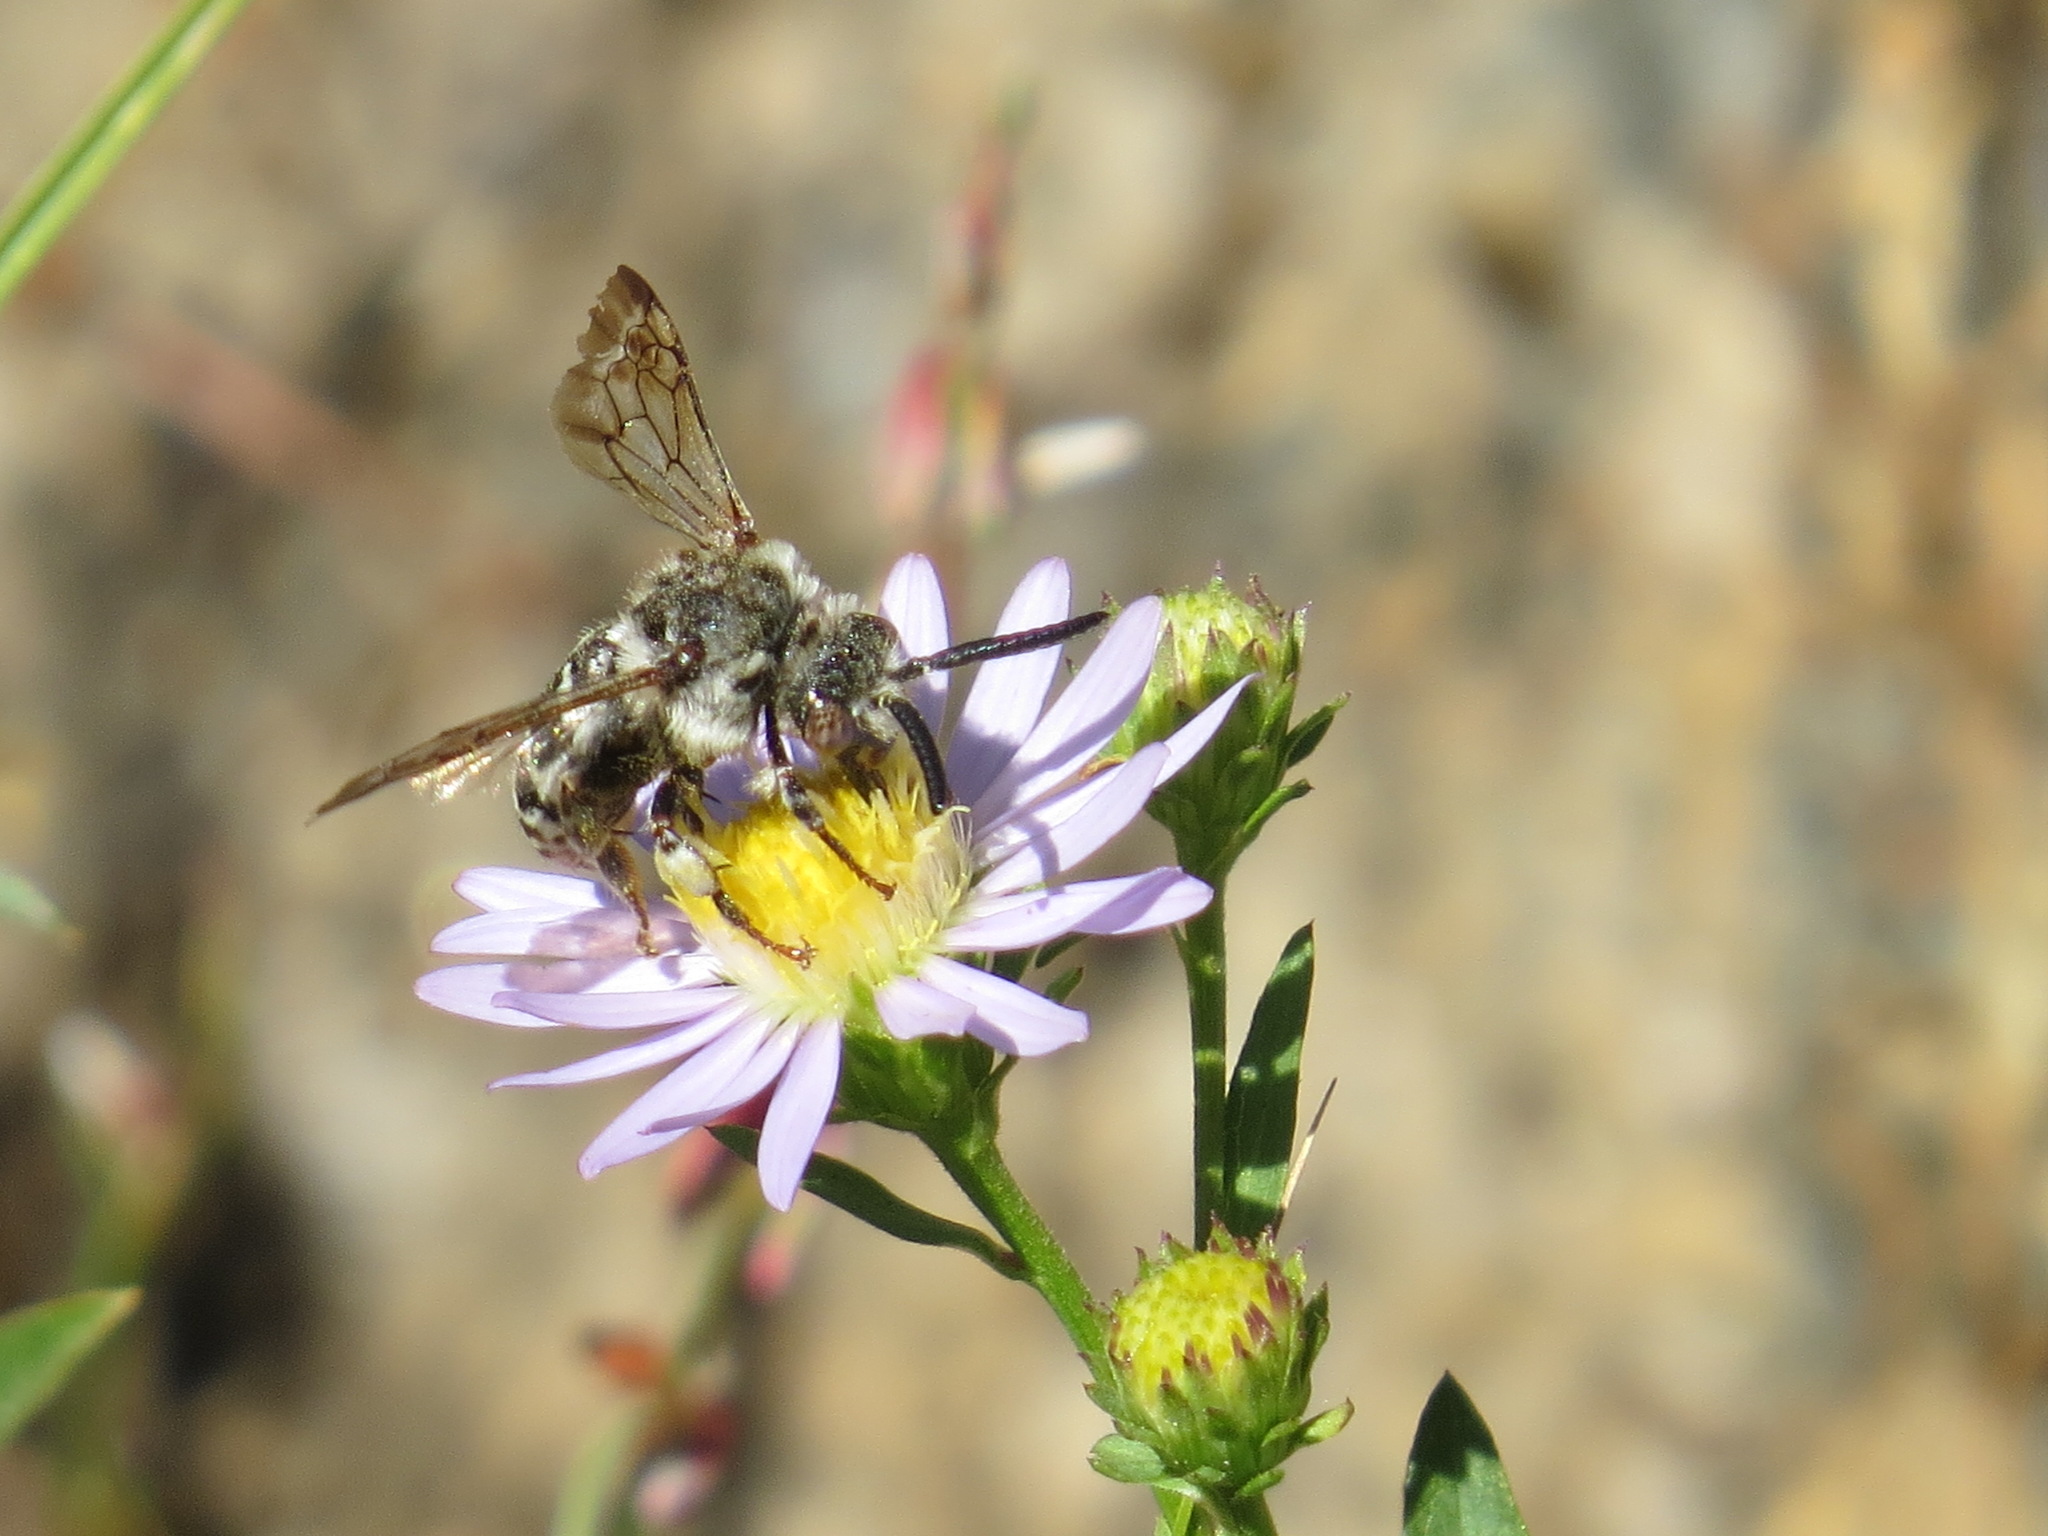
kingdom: Animalia
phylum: Arthropoda
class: Insecta
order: Hymenoptera
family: Apidae
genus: Brachymelecta
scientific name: Brachymelecta californica
